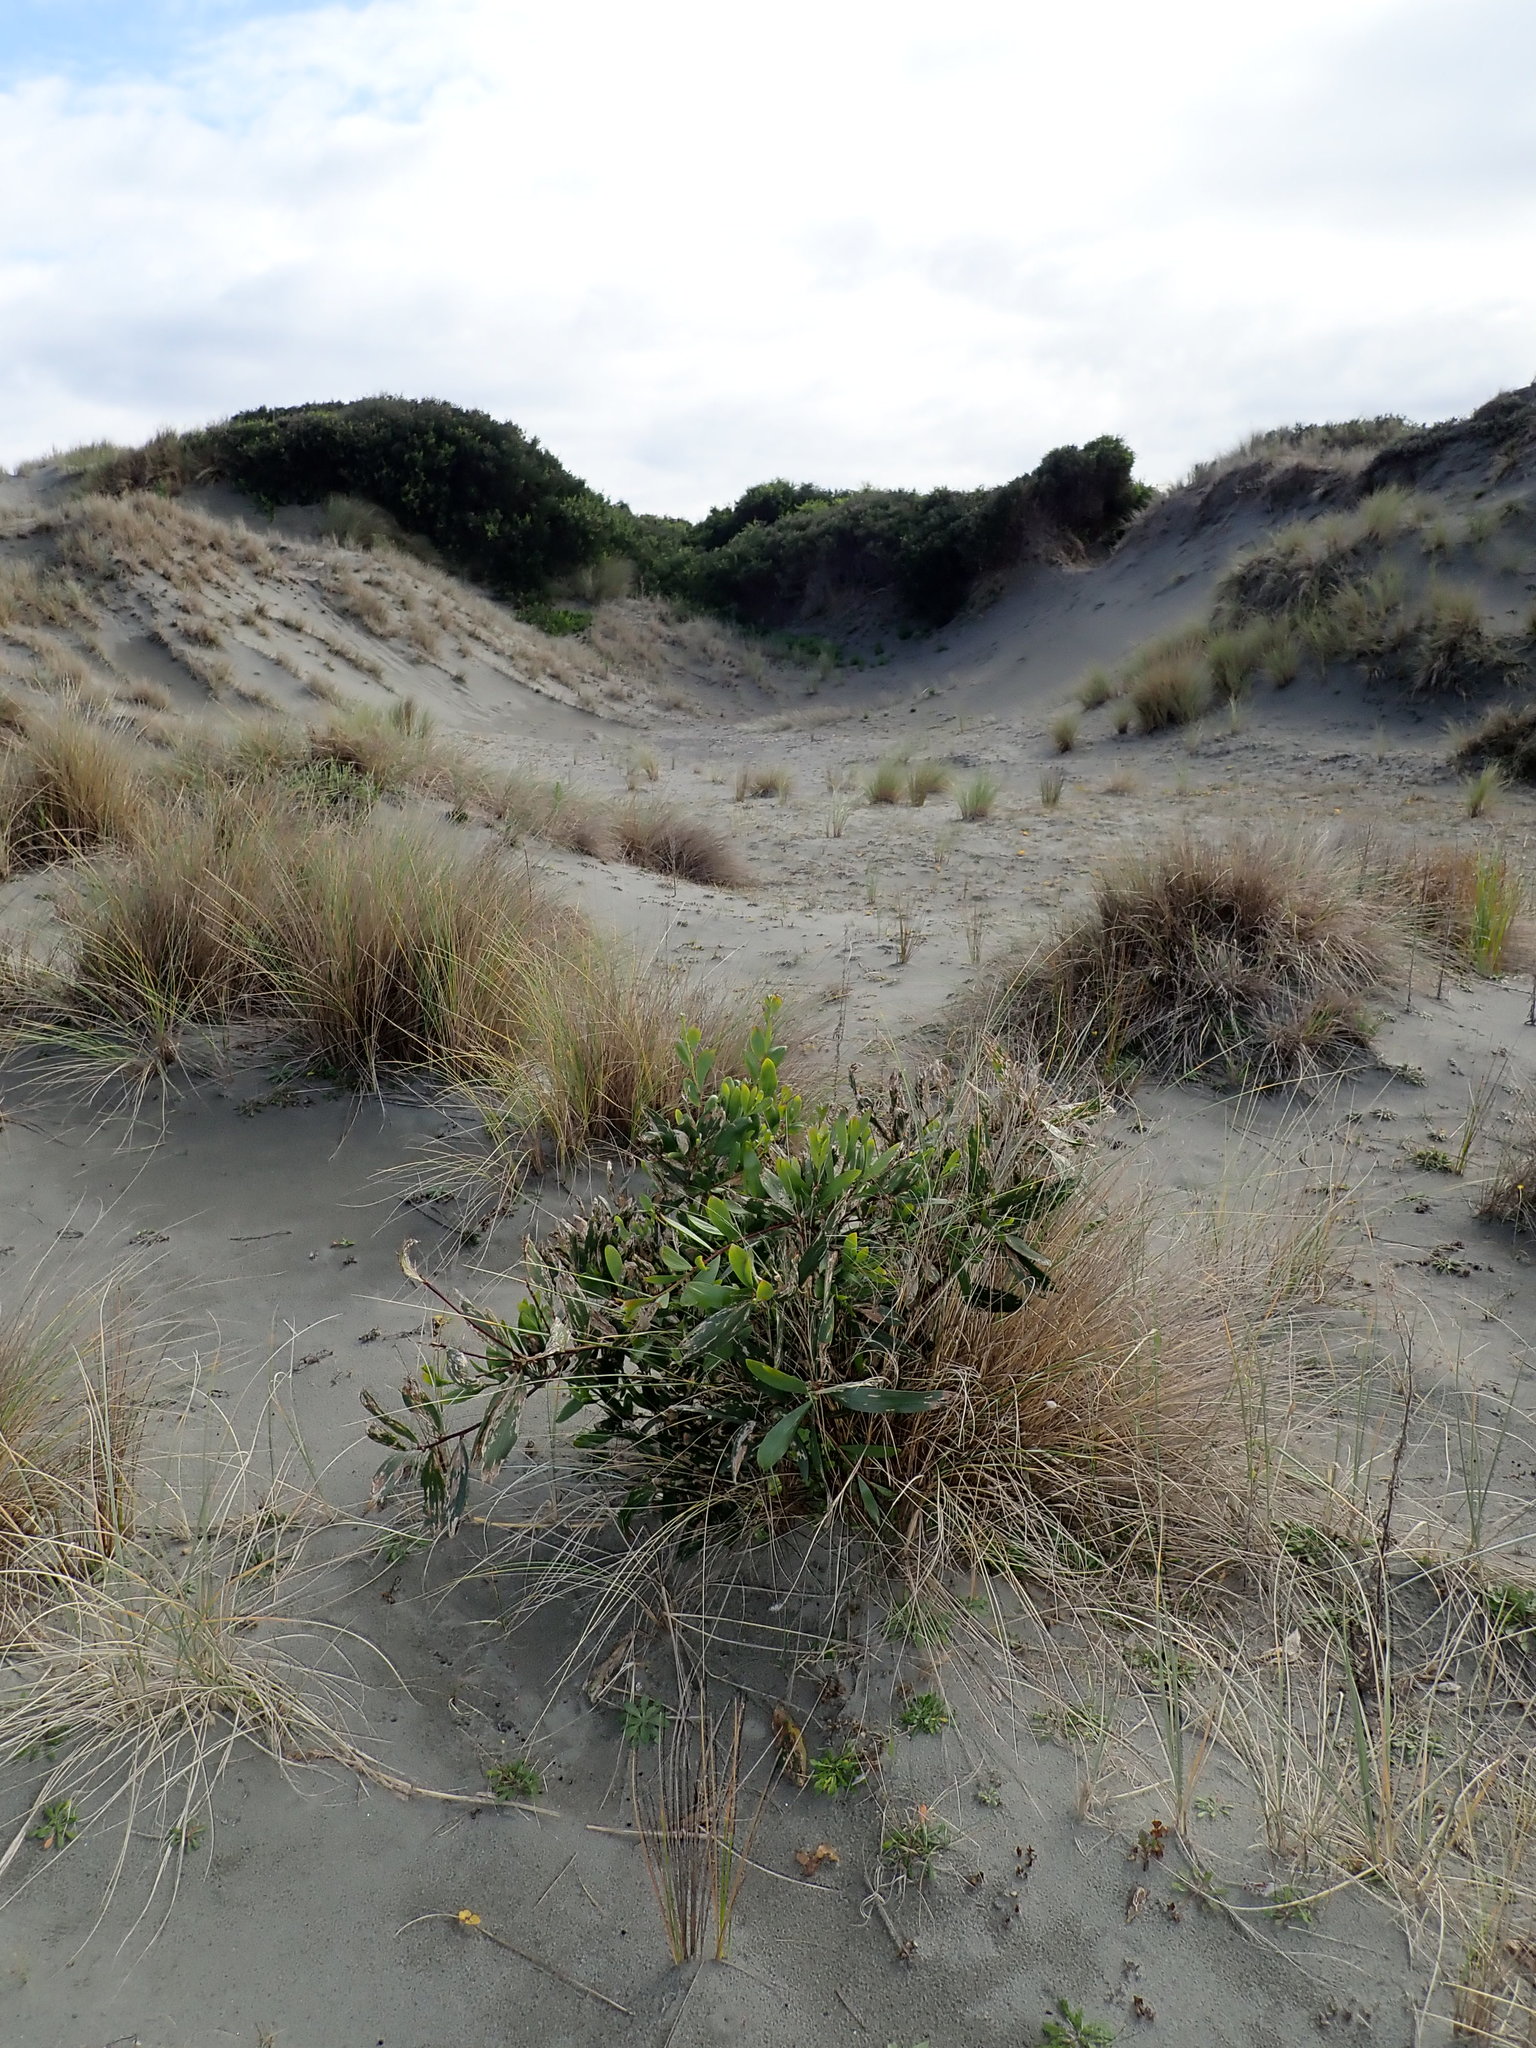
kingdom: Plantae
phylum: Tracheophyta
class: Magnoliopsida
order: Fabales
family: Fabaceae
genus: Acacia
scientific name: Acacia longifolia
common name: Sydney golden wattle
